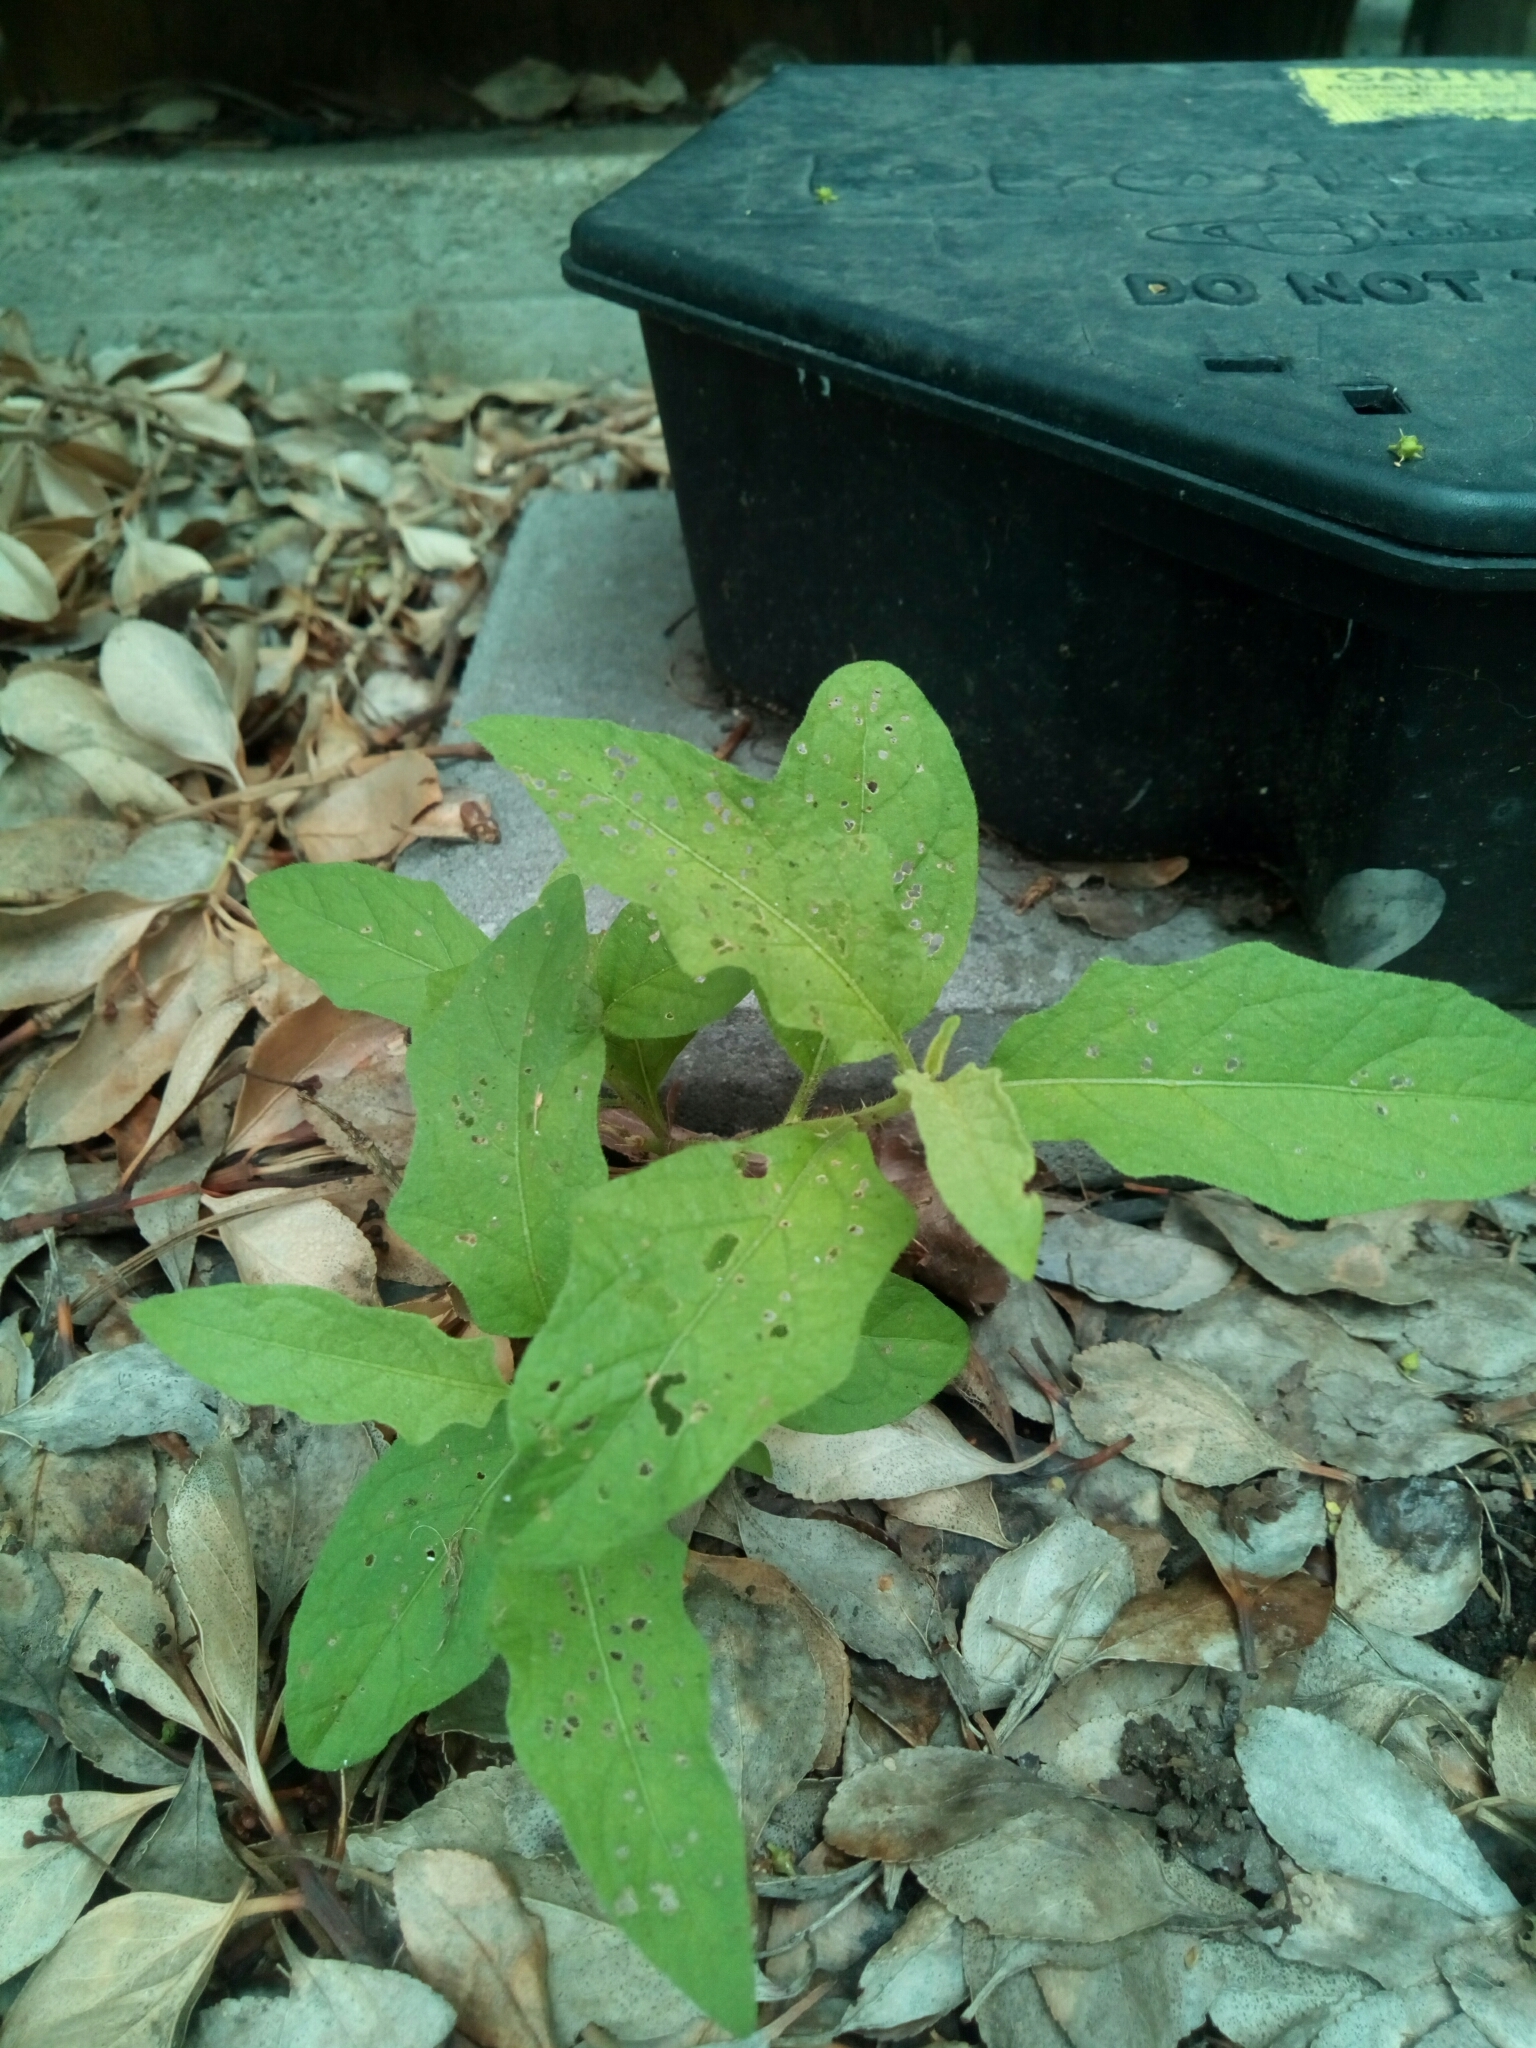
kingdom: Plantae
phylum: Tracheophyta
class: Magnoliopsida
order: Solanales
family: Solanaceae
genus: Solanum
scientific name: Solanum carolinense
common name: Horse-nettle
